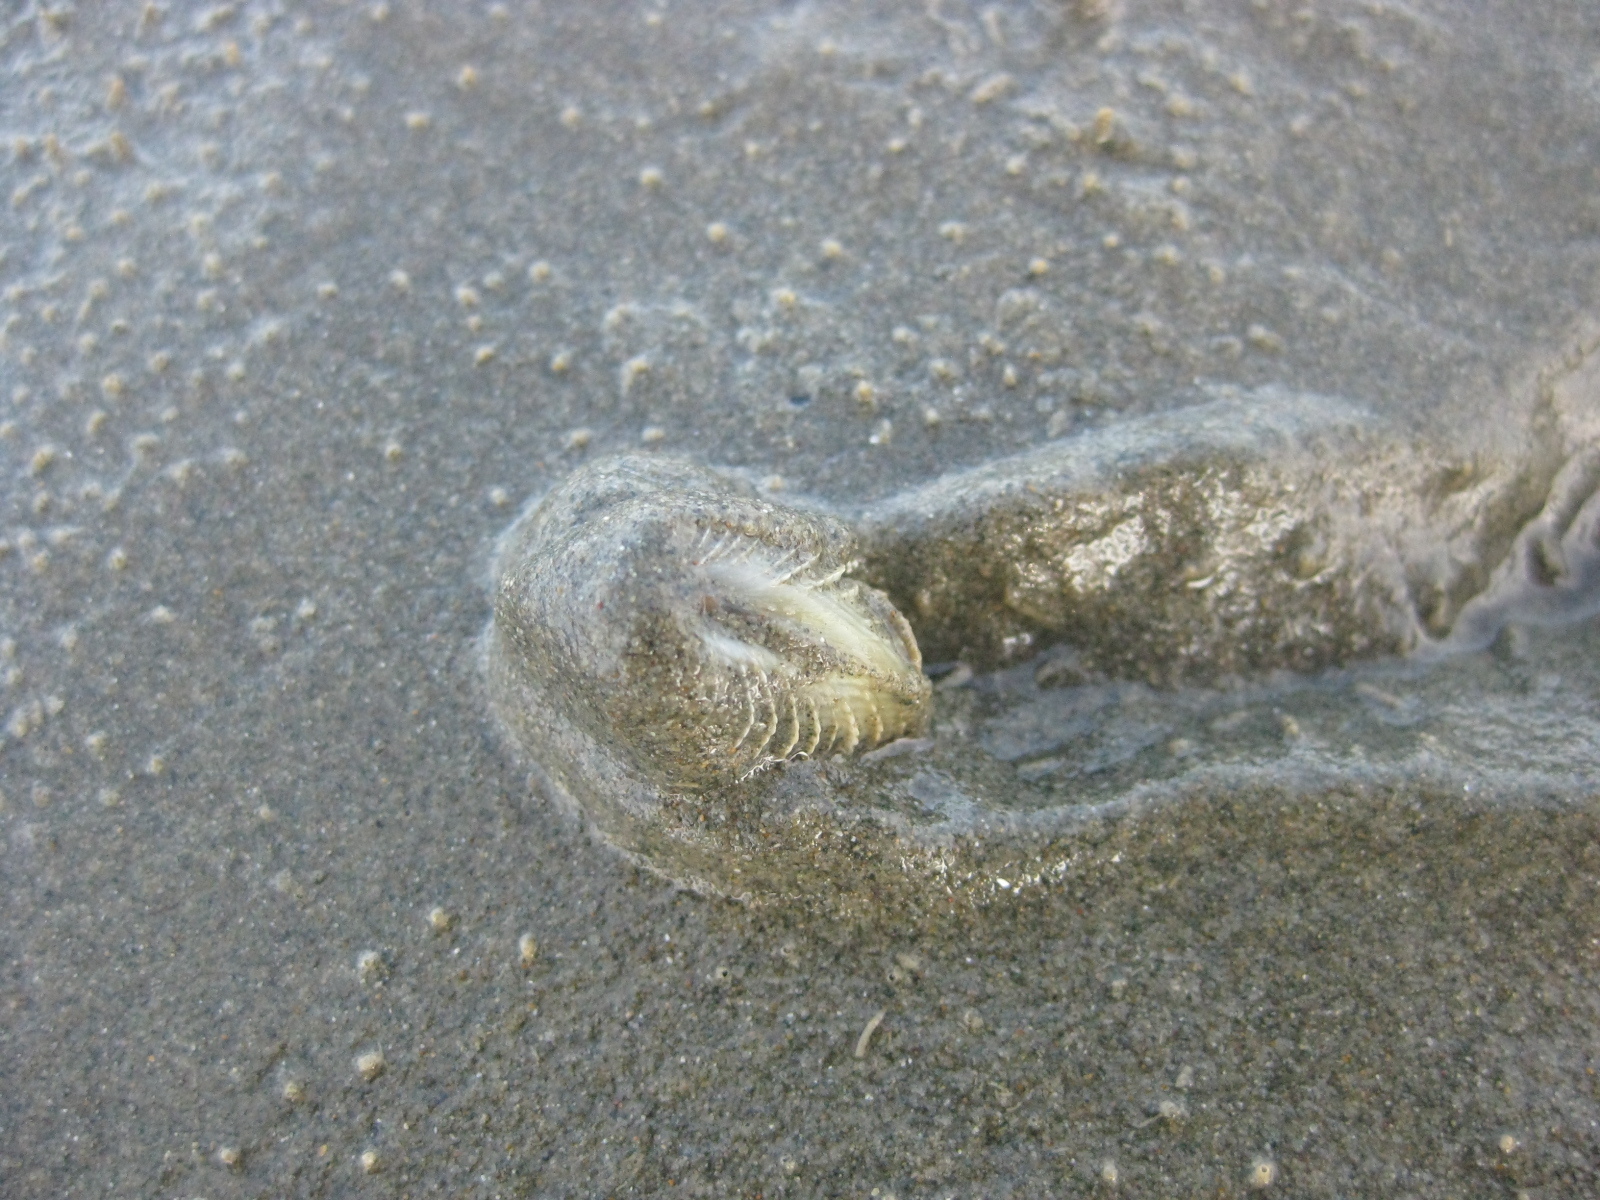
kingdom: Animalia
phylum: Mollusca
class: Bivalvia
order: Venerida
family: Veneridae
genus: Austrovenus
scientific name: Austrovenus stutchburyi
